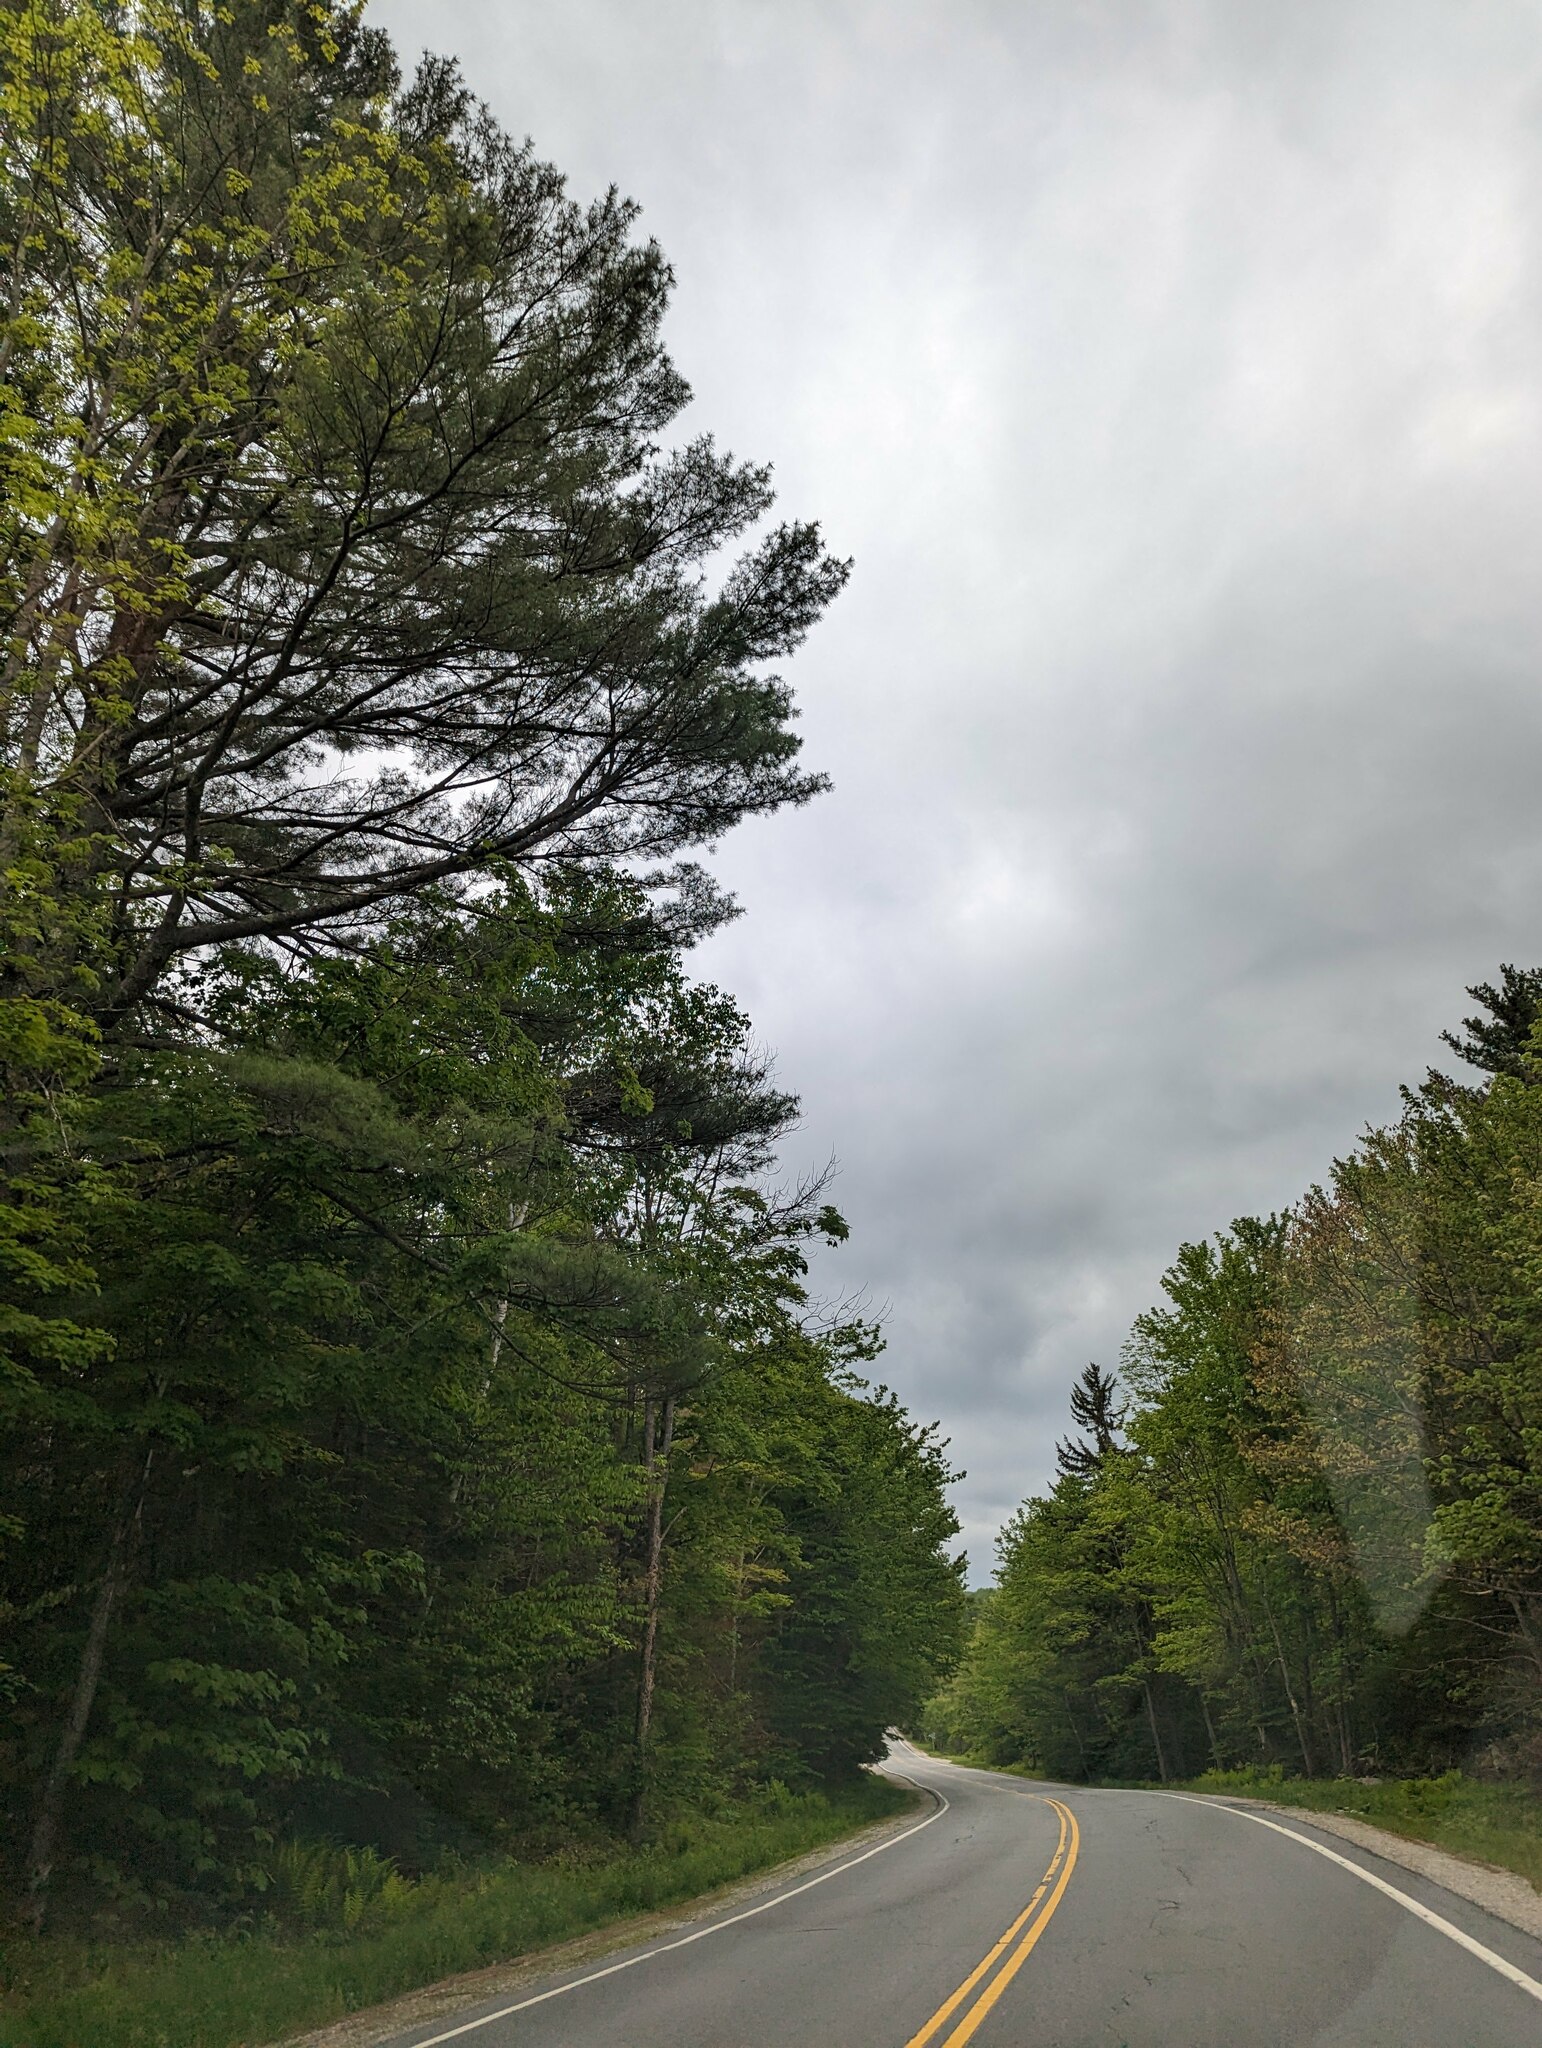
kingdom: Plantae
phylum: Tracheophyta
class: Pinopsida
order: Pinales
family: Pinaceae
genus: Pinus
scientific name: Pinus strobus
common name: Weymouth pine
